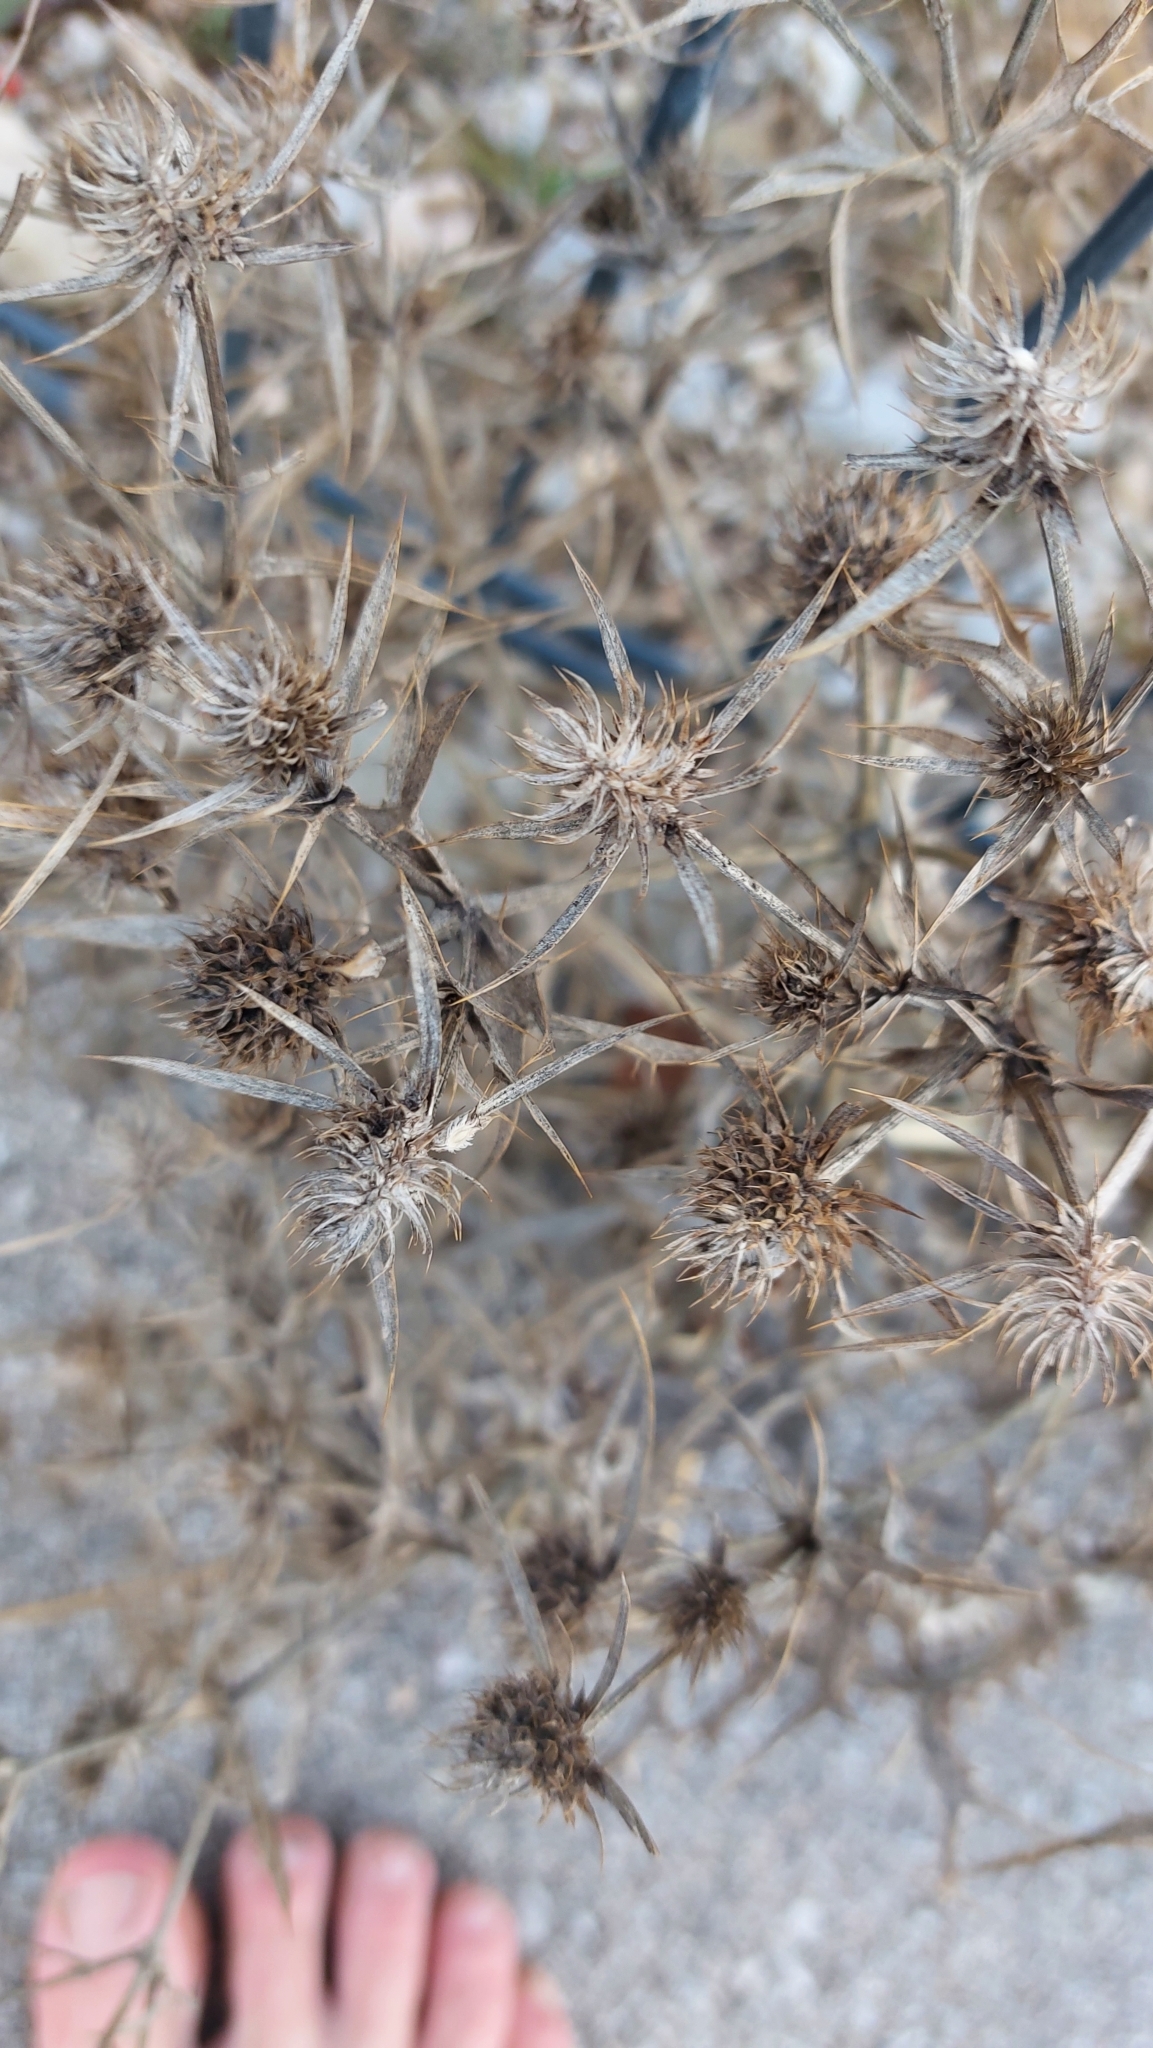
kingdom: Plantae
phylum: Tracheophyta
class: Magnoliopsida
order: Apiales
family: Apiaceae
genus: Eryngium
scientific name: Eryngium campestre
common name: Field eryngo
